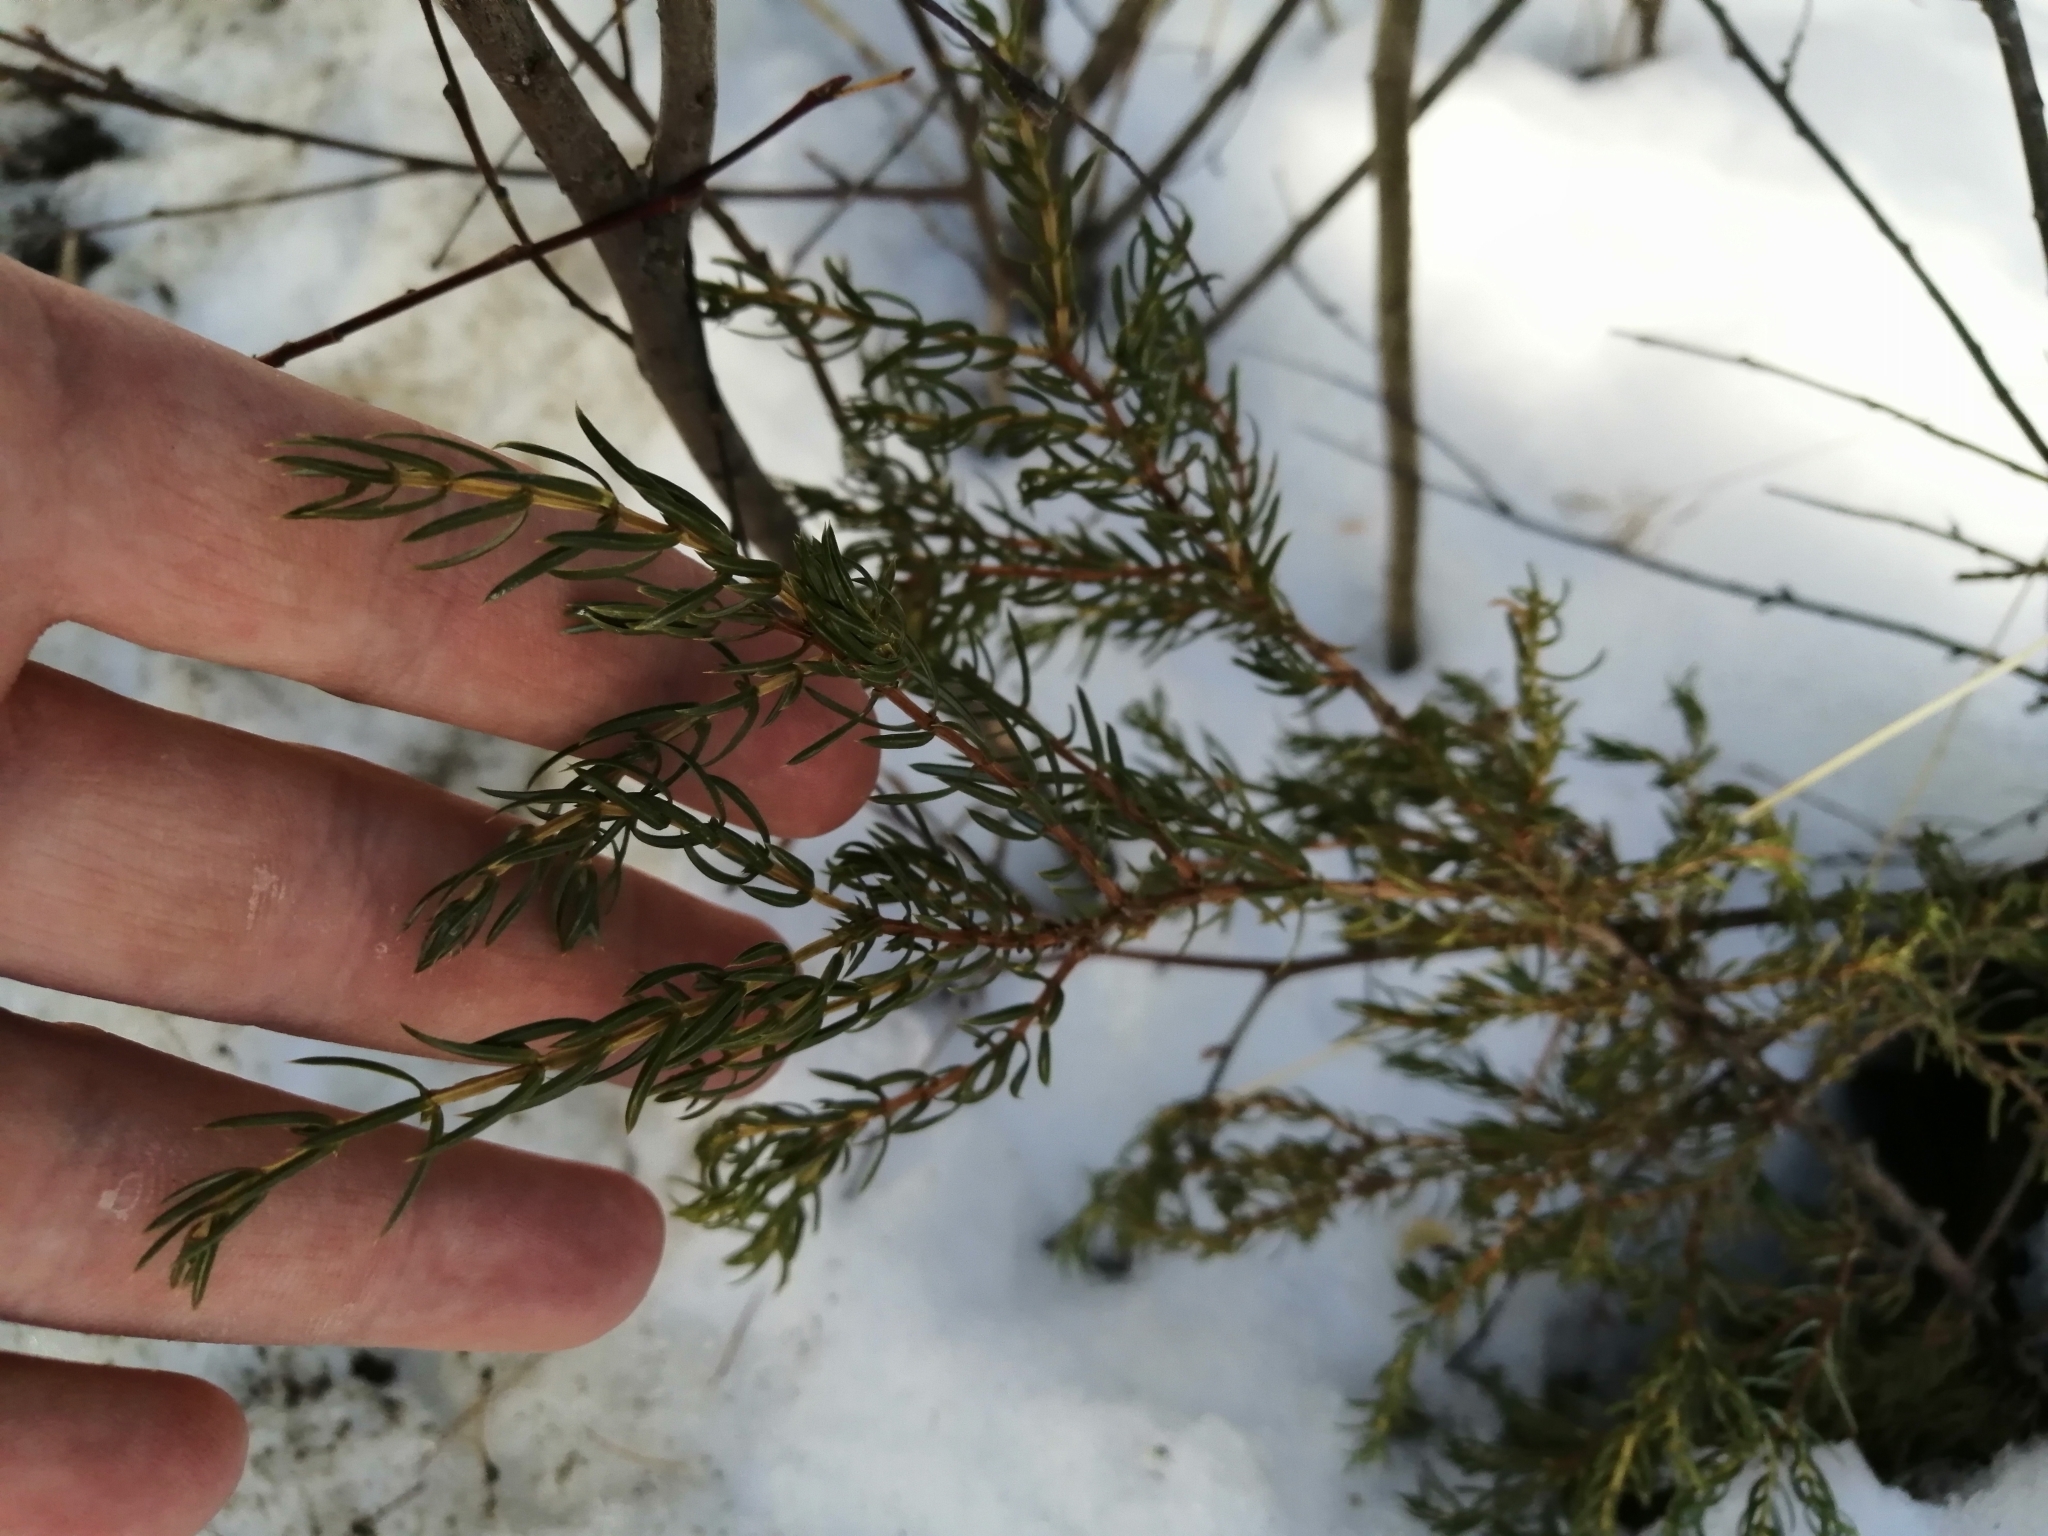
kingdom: Plantae
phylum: Tracheophyta
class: Pinopsida
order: Pinales
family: Cupressaceae
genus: Juniperus
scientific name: Juniperus communis
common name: Common juniper
